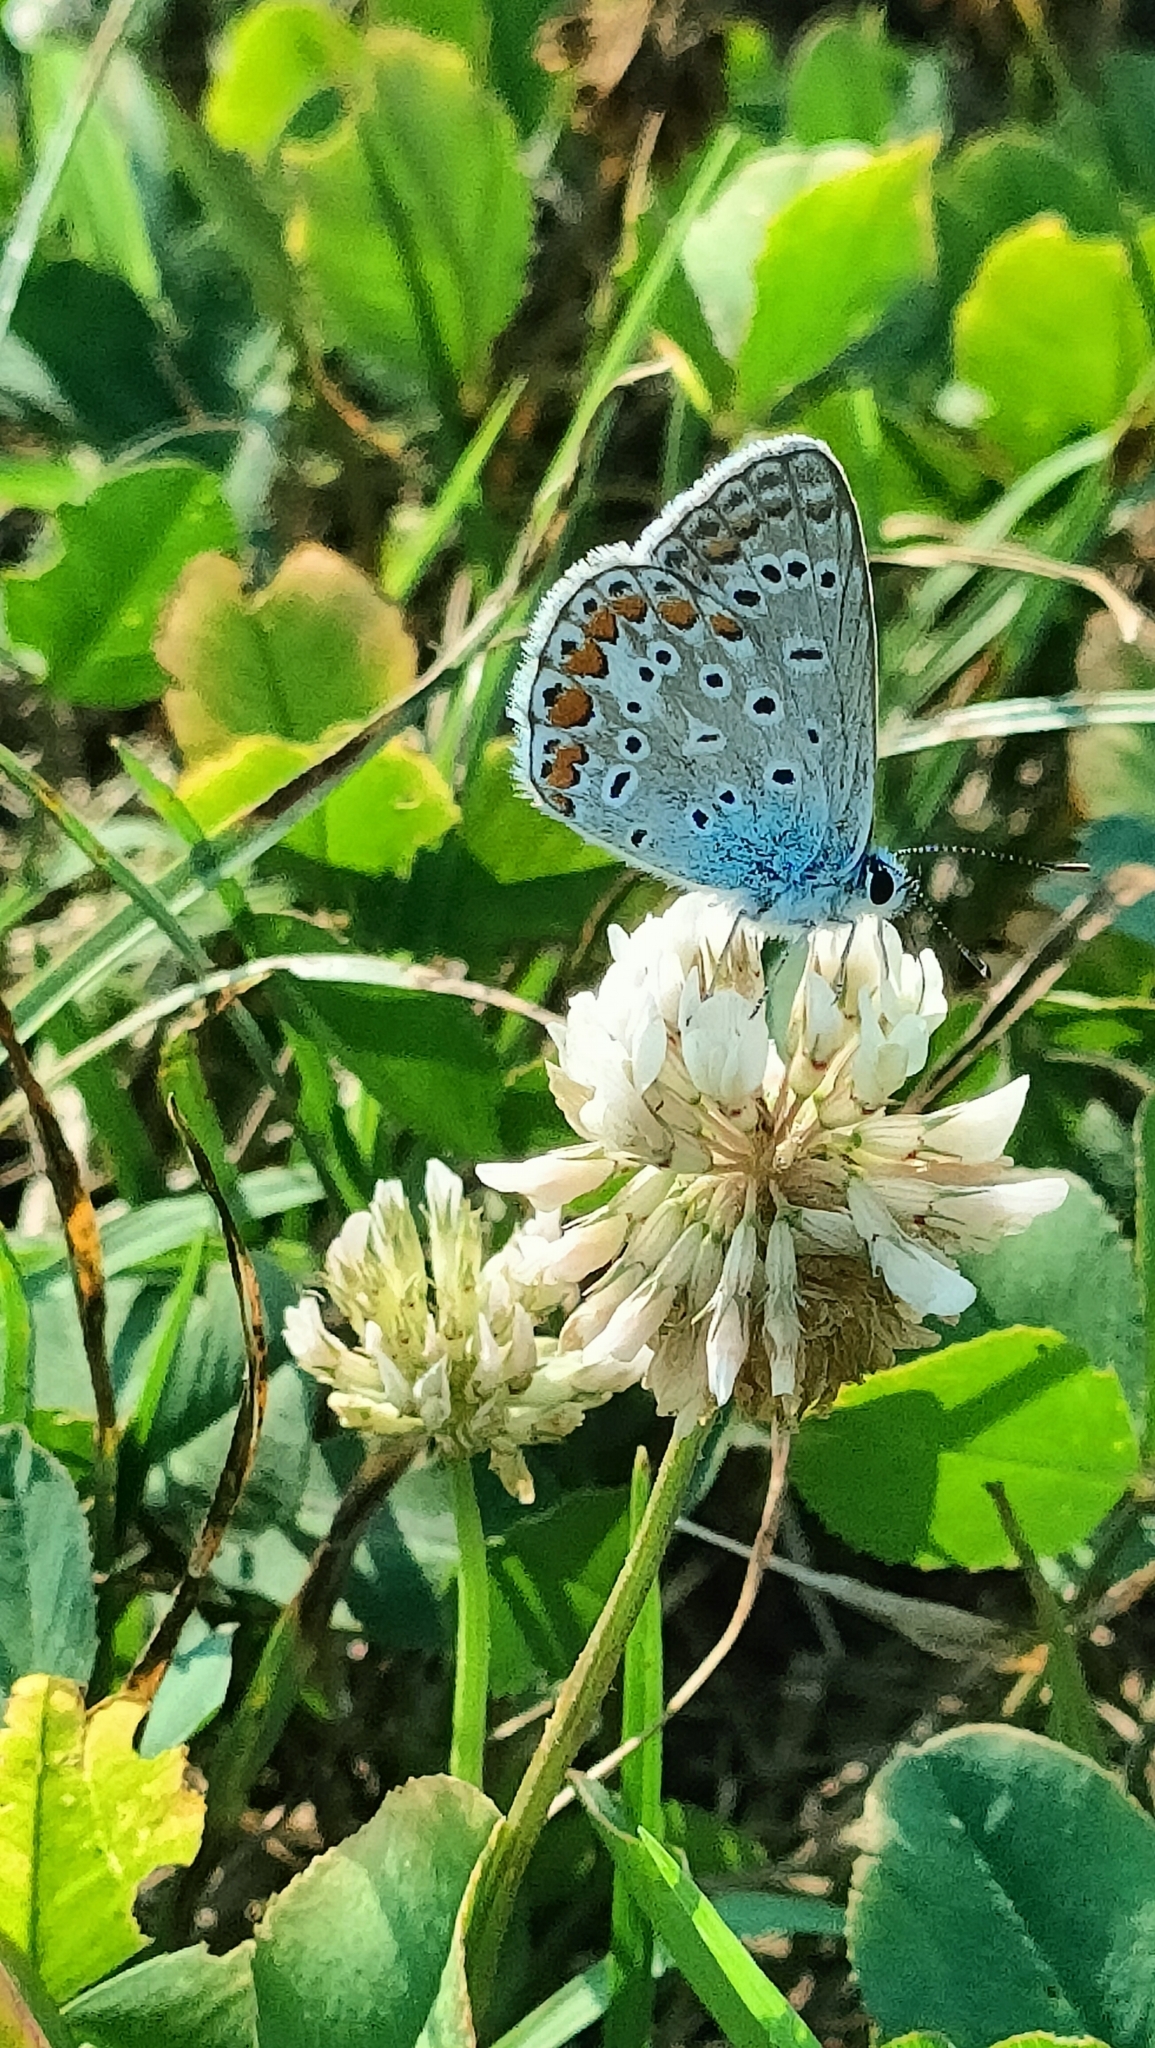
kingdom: Animalia
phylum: Arthropoda
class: Insecta
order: Lepidoptera
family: Lycaenidae
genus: Polyommatus
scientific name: Polyommatus icarus
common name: Common blue
